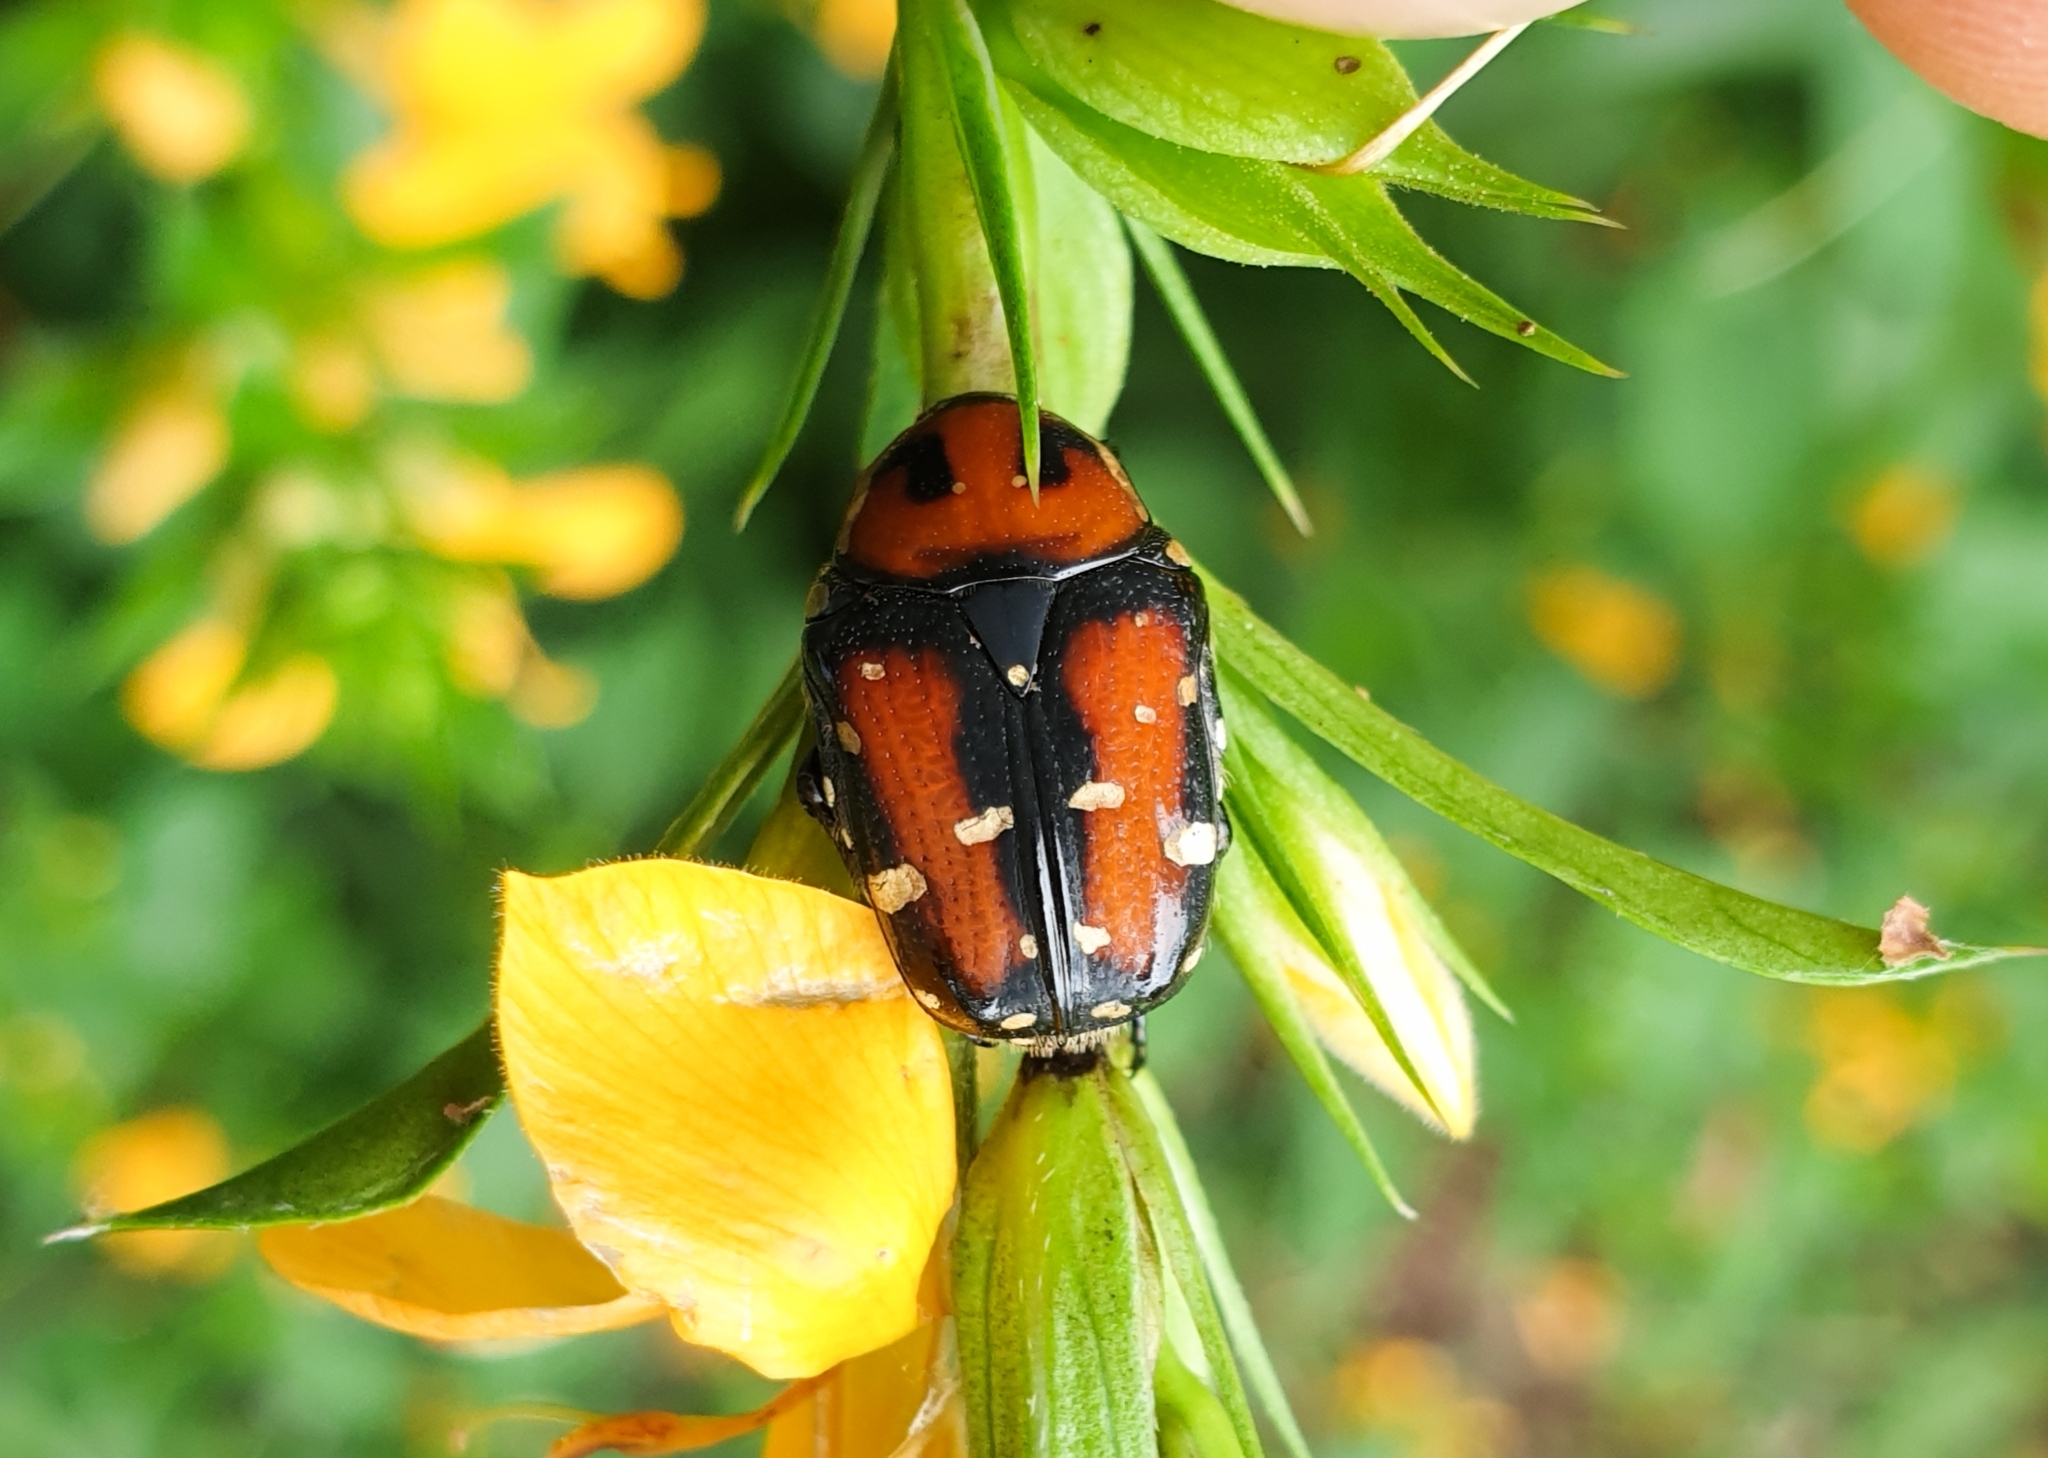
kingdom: Animalia
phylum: Arthropoda
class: Insecta
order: Coleoptera
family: Scarabaeidae
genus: Gametis
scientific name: Gametis versicolor
